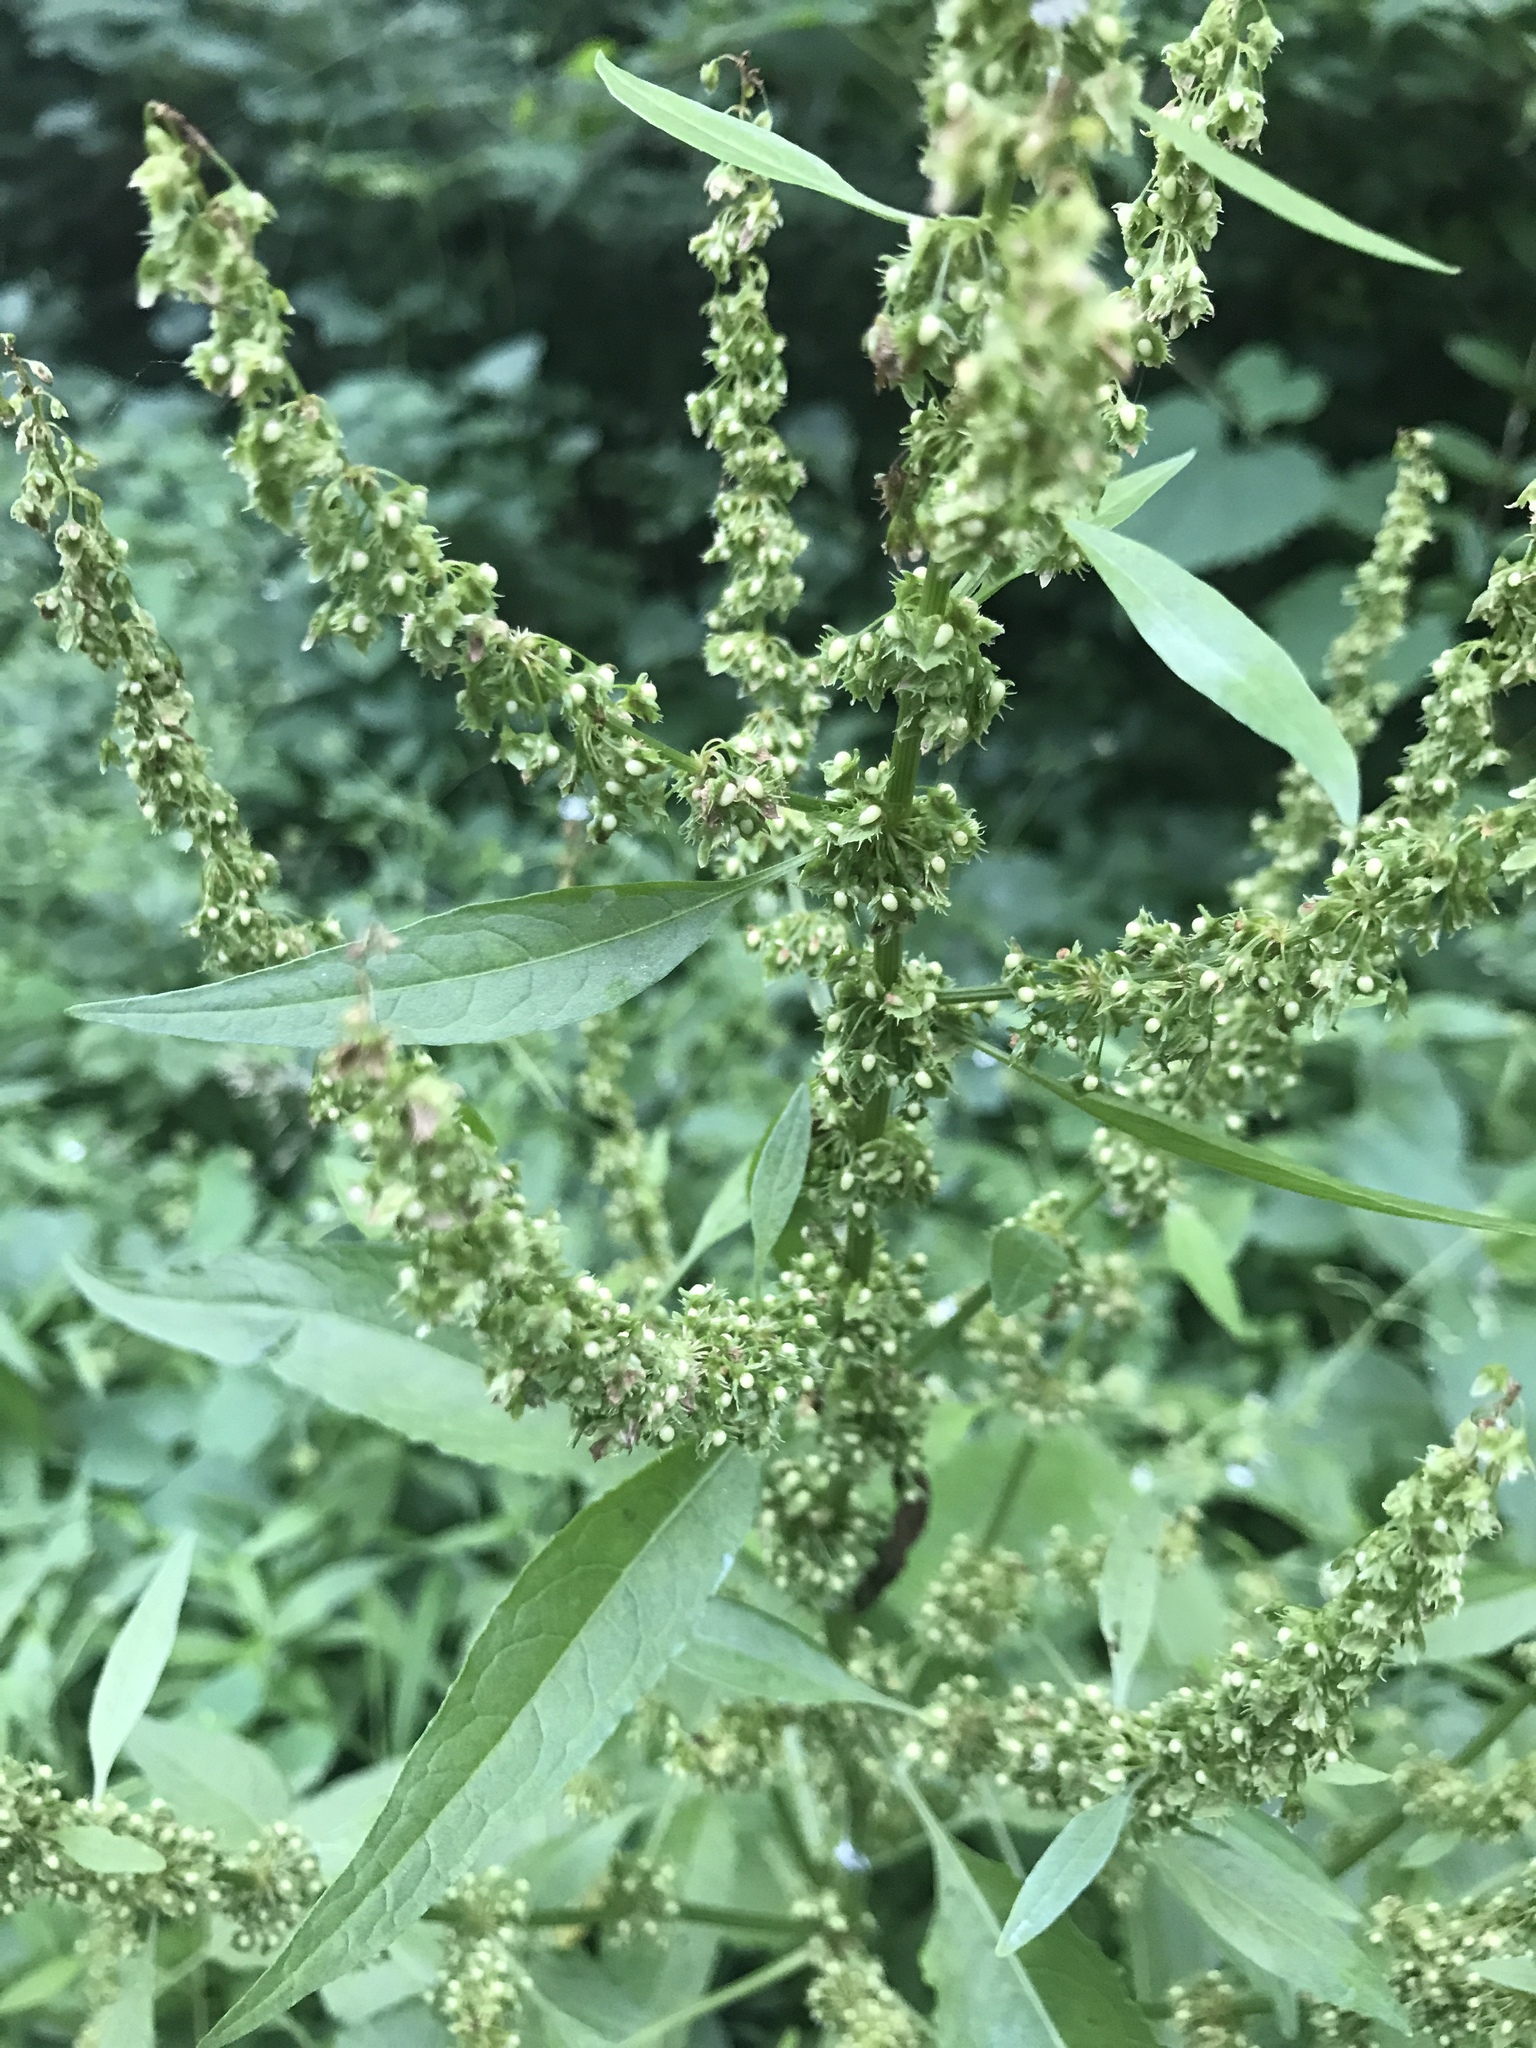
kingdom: Plantae
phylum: Tracheophyta
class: Magnoliopsida
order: Caryophyllales
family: Polygonaceae
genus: Rumex
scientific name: Rumex obtusifolius
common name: Bitter dock
